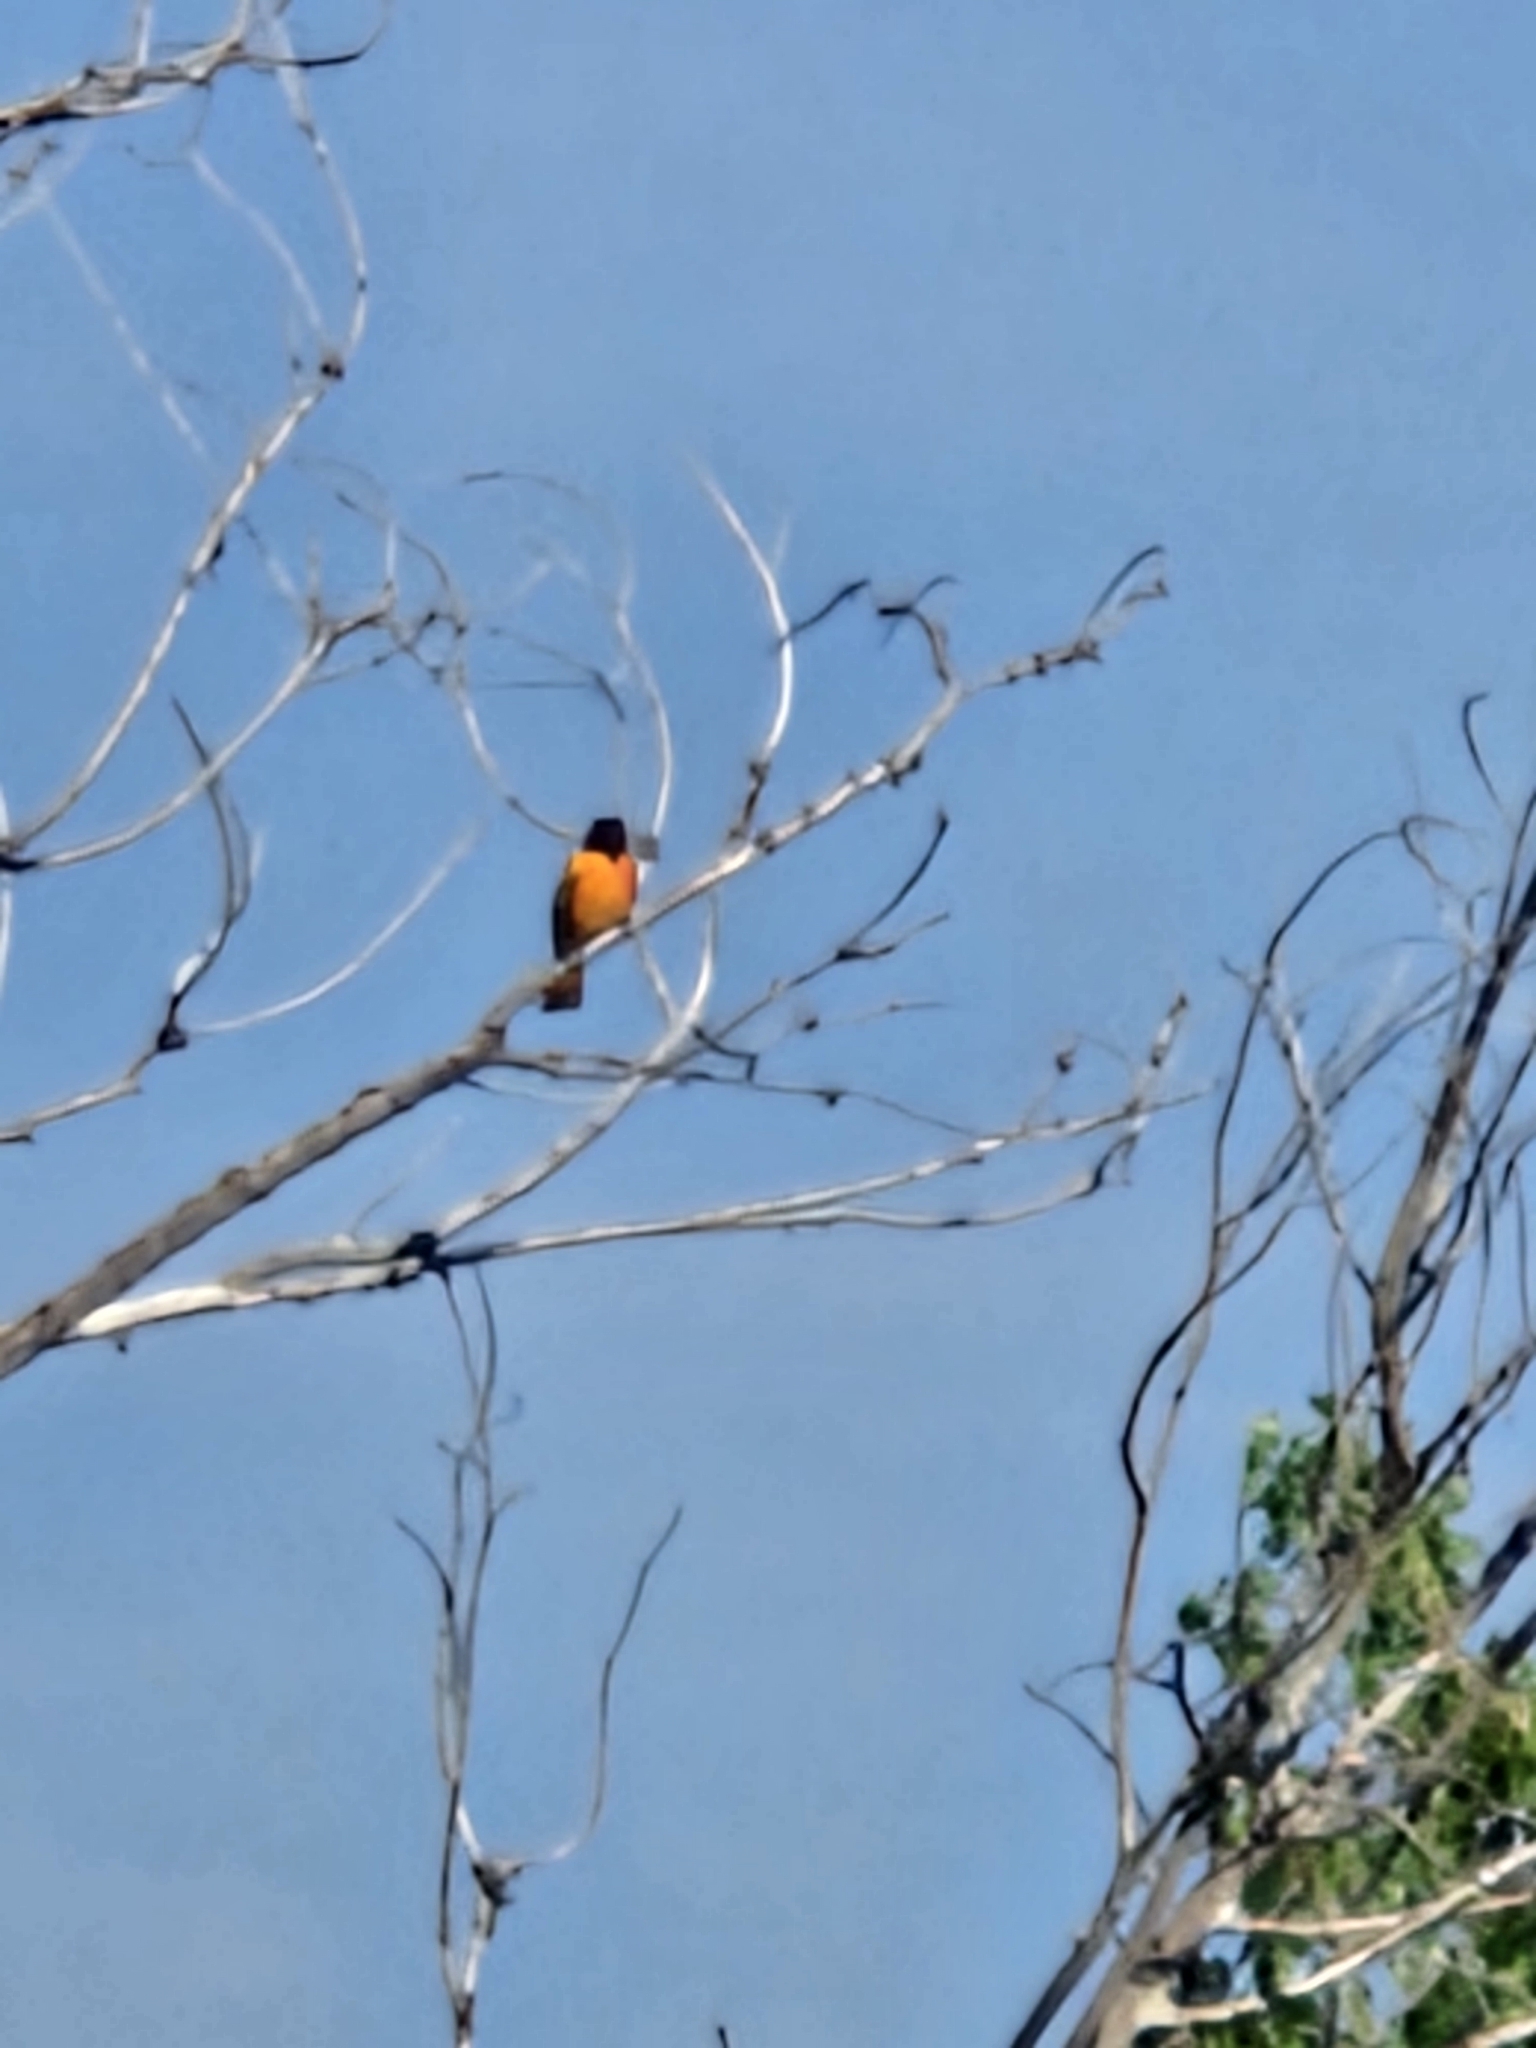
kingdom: Animalia
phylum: Chordata
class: Aves
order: Passeriformes
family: Icteridae
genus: Icterus
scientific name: Icterus galbula
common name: Baltimore oriole
